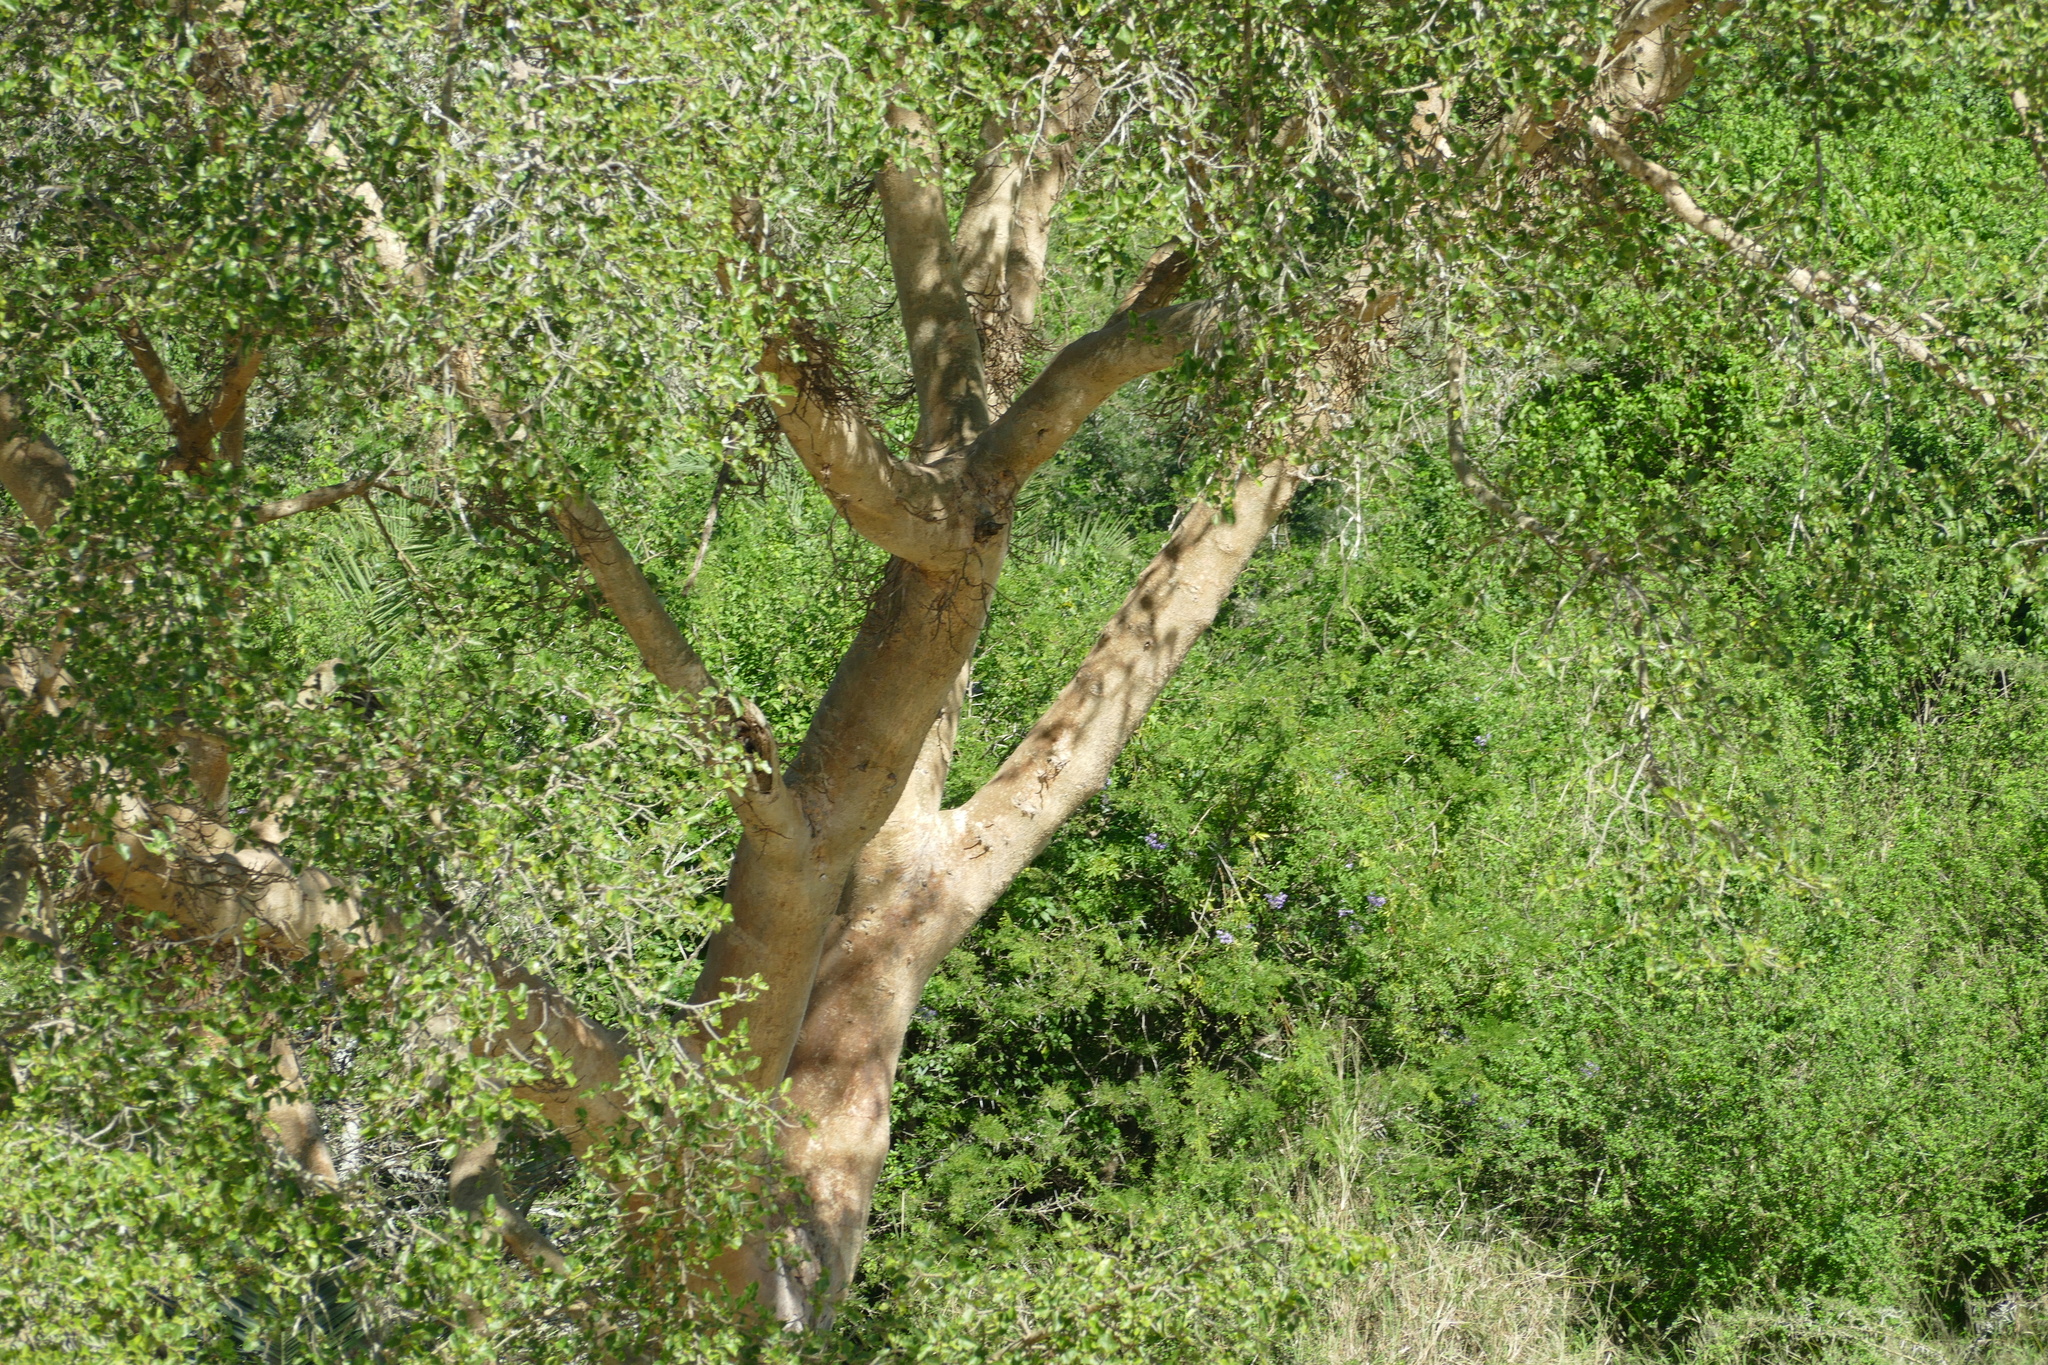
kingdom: Plantae
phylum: Tracheophyta
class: Magnoliopsida
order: Rosales
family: Moraceae
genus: Ficus
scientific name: Ficus sycomorus
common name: Sycomore
